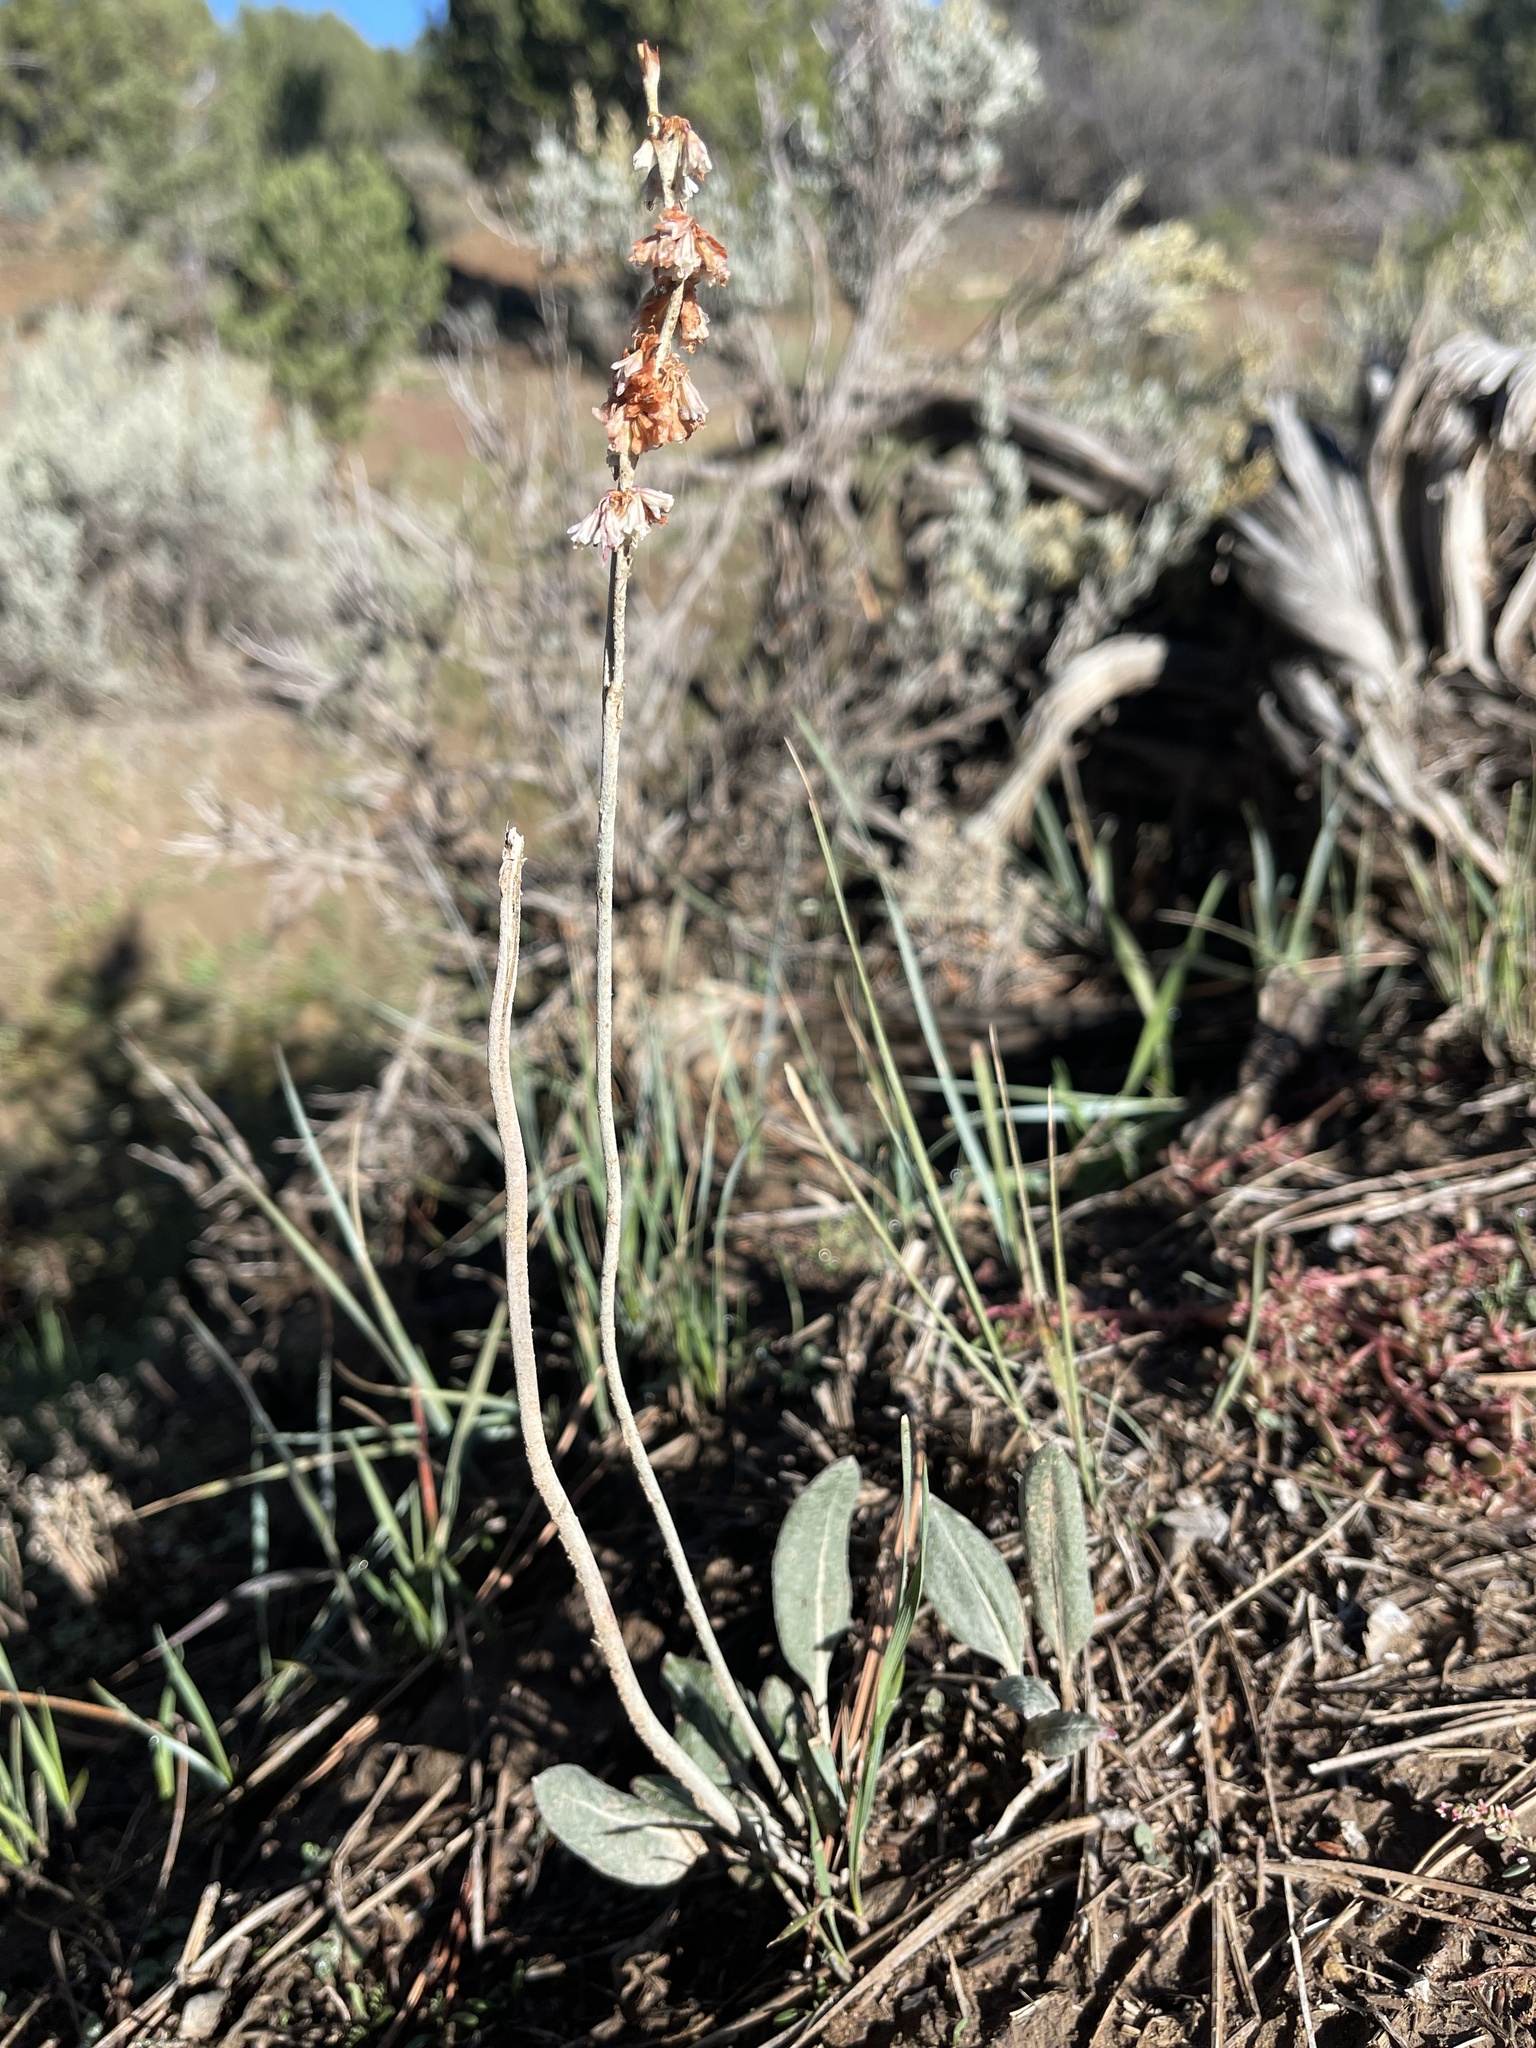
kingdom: Plantae
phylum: Tracheophyta
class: Magnoliopsida
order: Caryophyllales
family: Polygonaceae
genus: Eriogonum
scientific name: Eriogonum racemosum
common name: Redroot wild buckwheat
